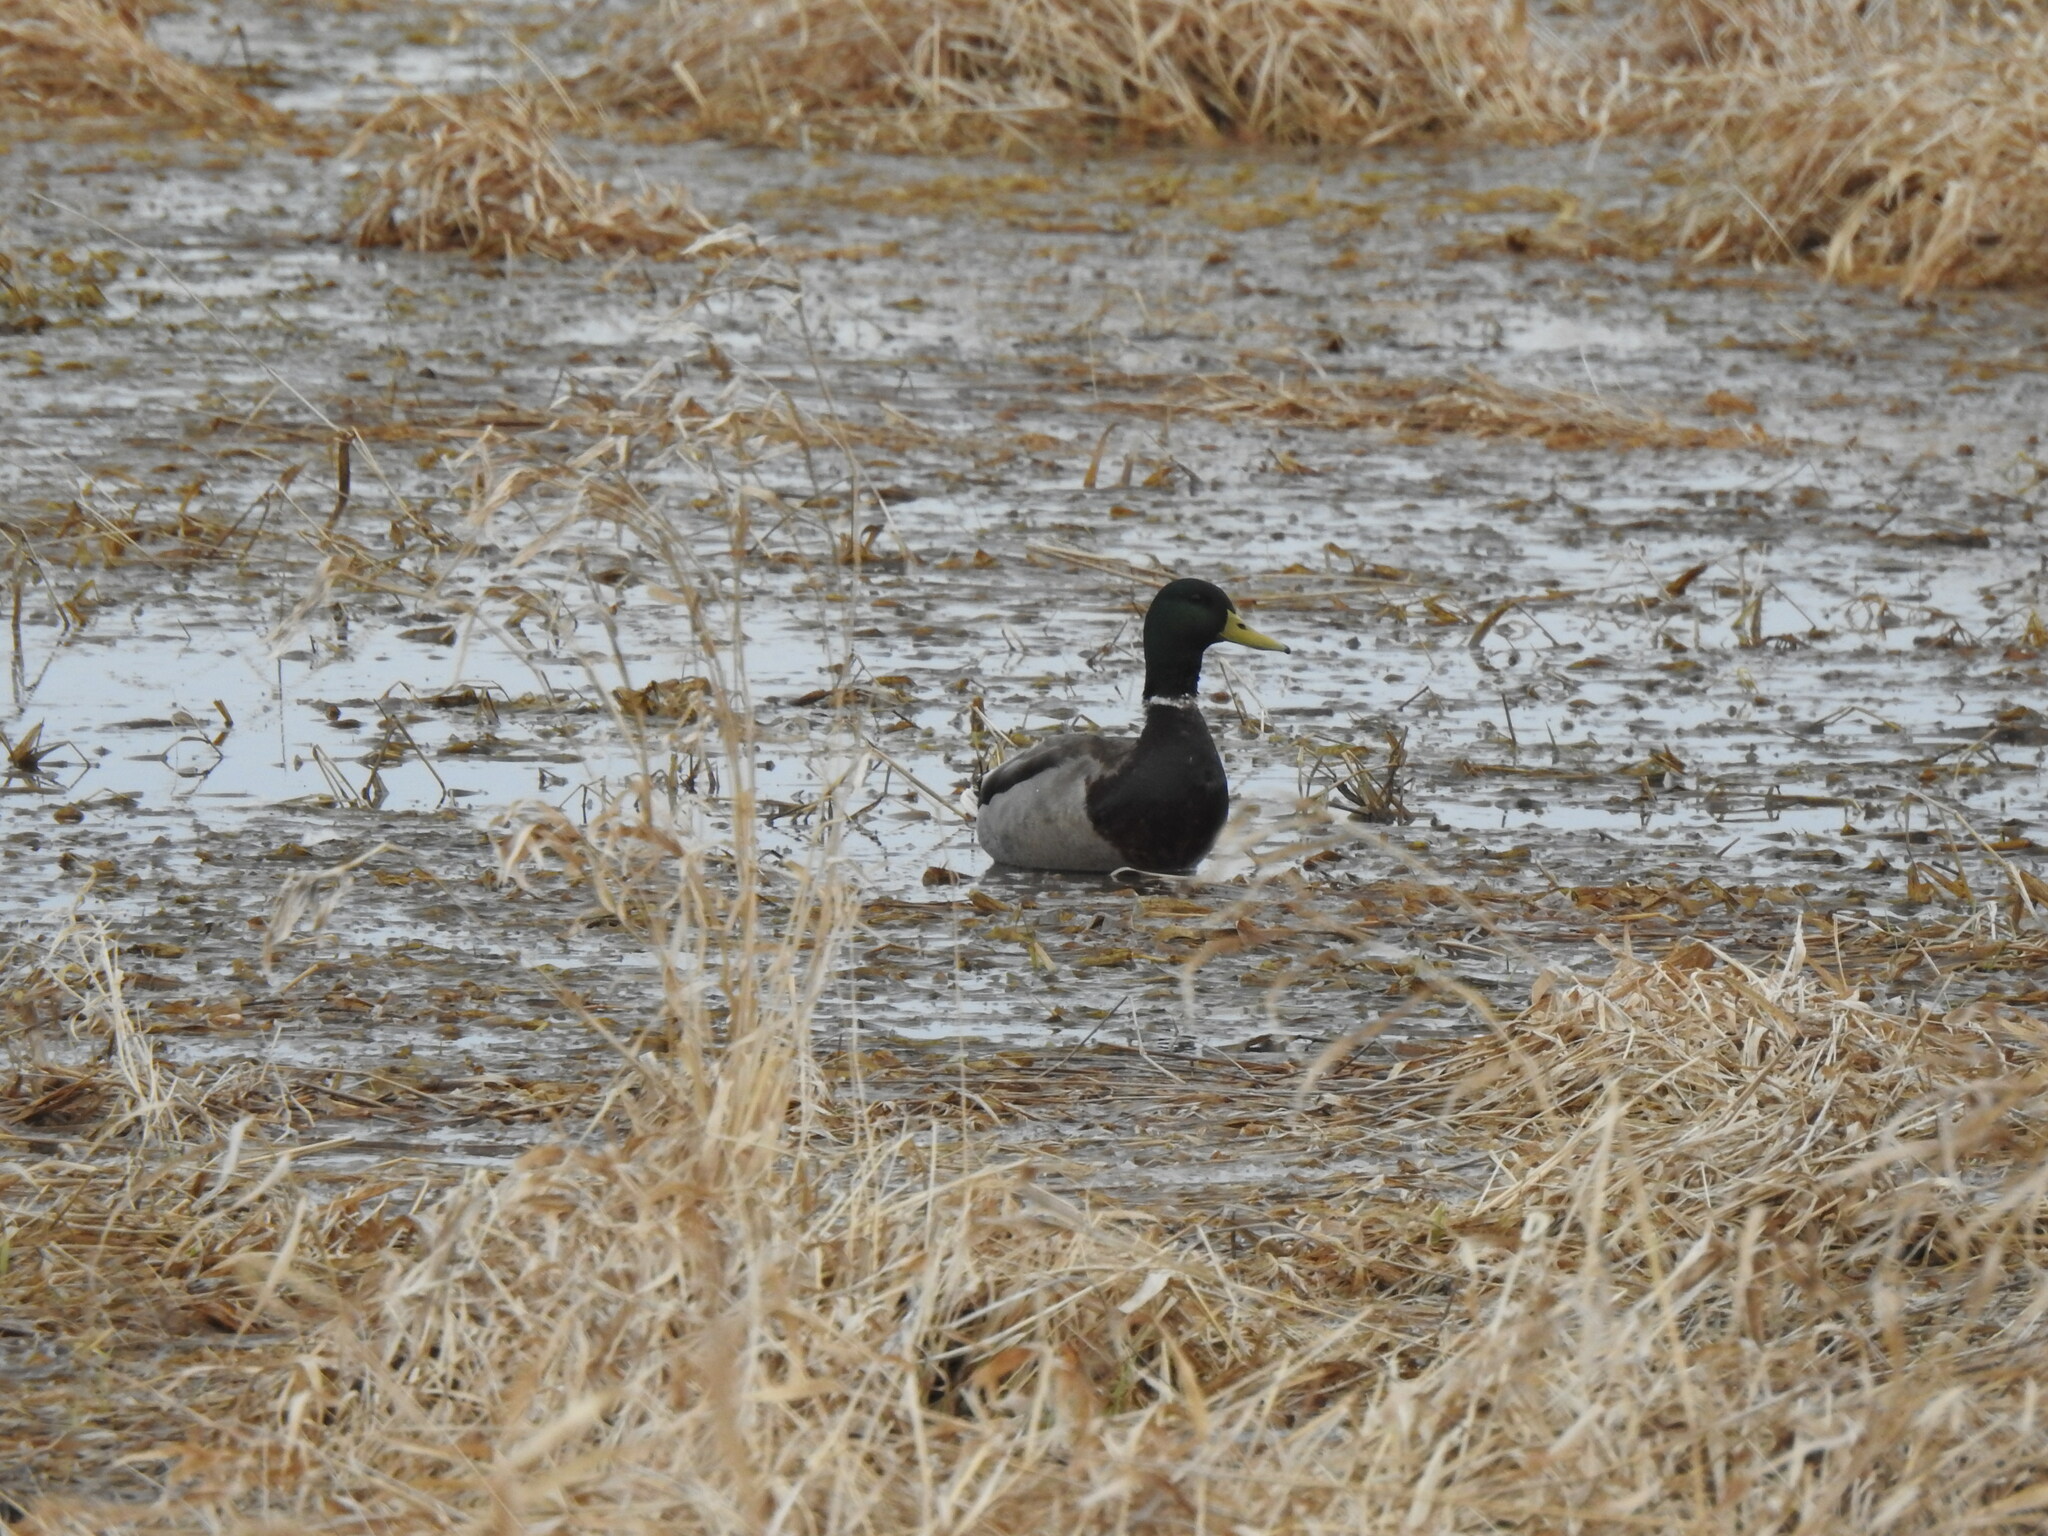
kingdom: Animalia
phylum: Chordata
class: Aves
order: Anseriformes
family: Anatidae
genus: Anas
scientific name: Anas platyrhynchos
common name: Mallard
